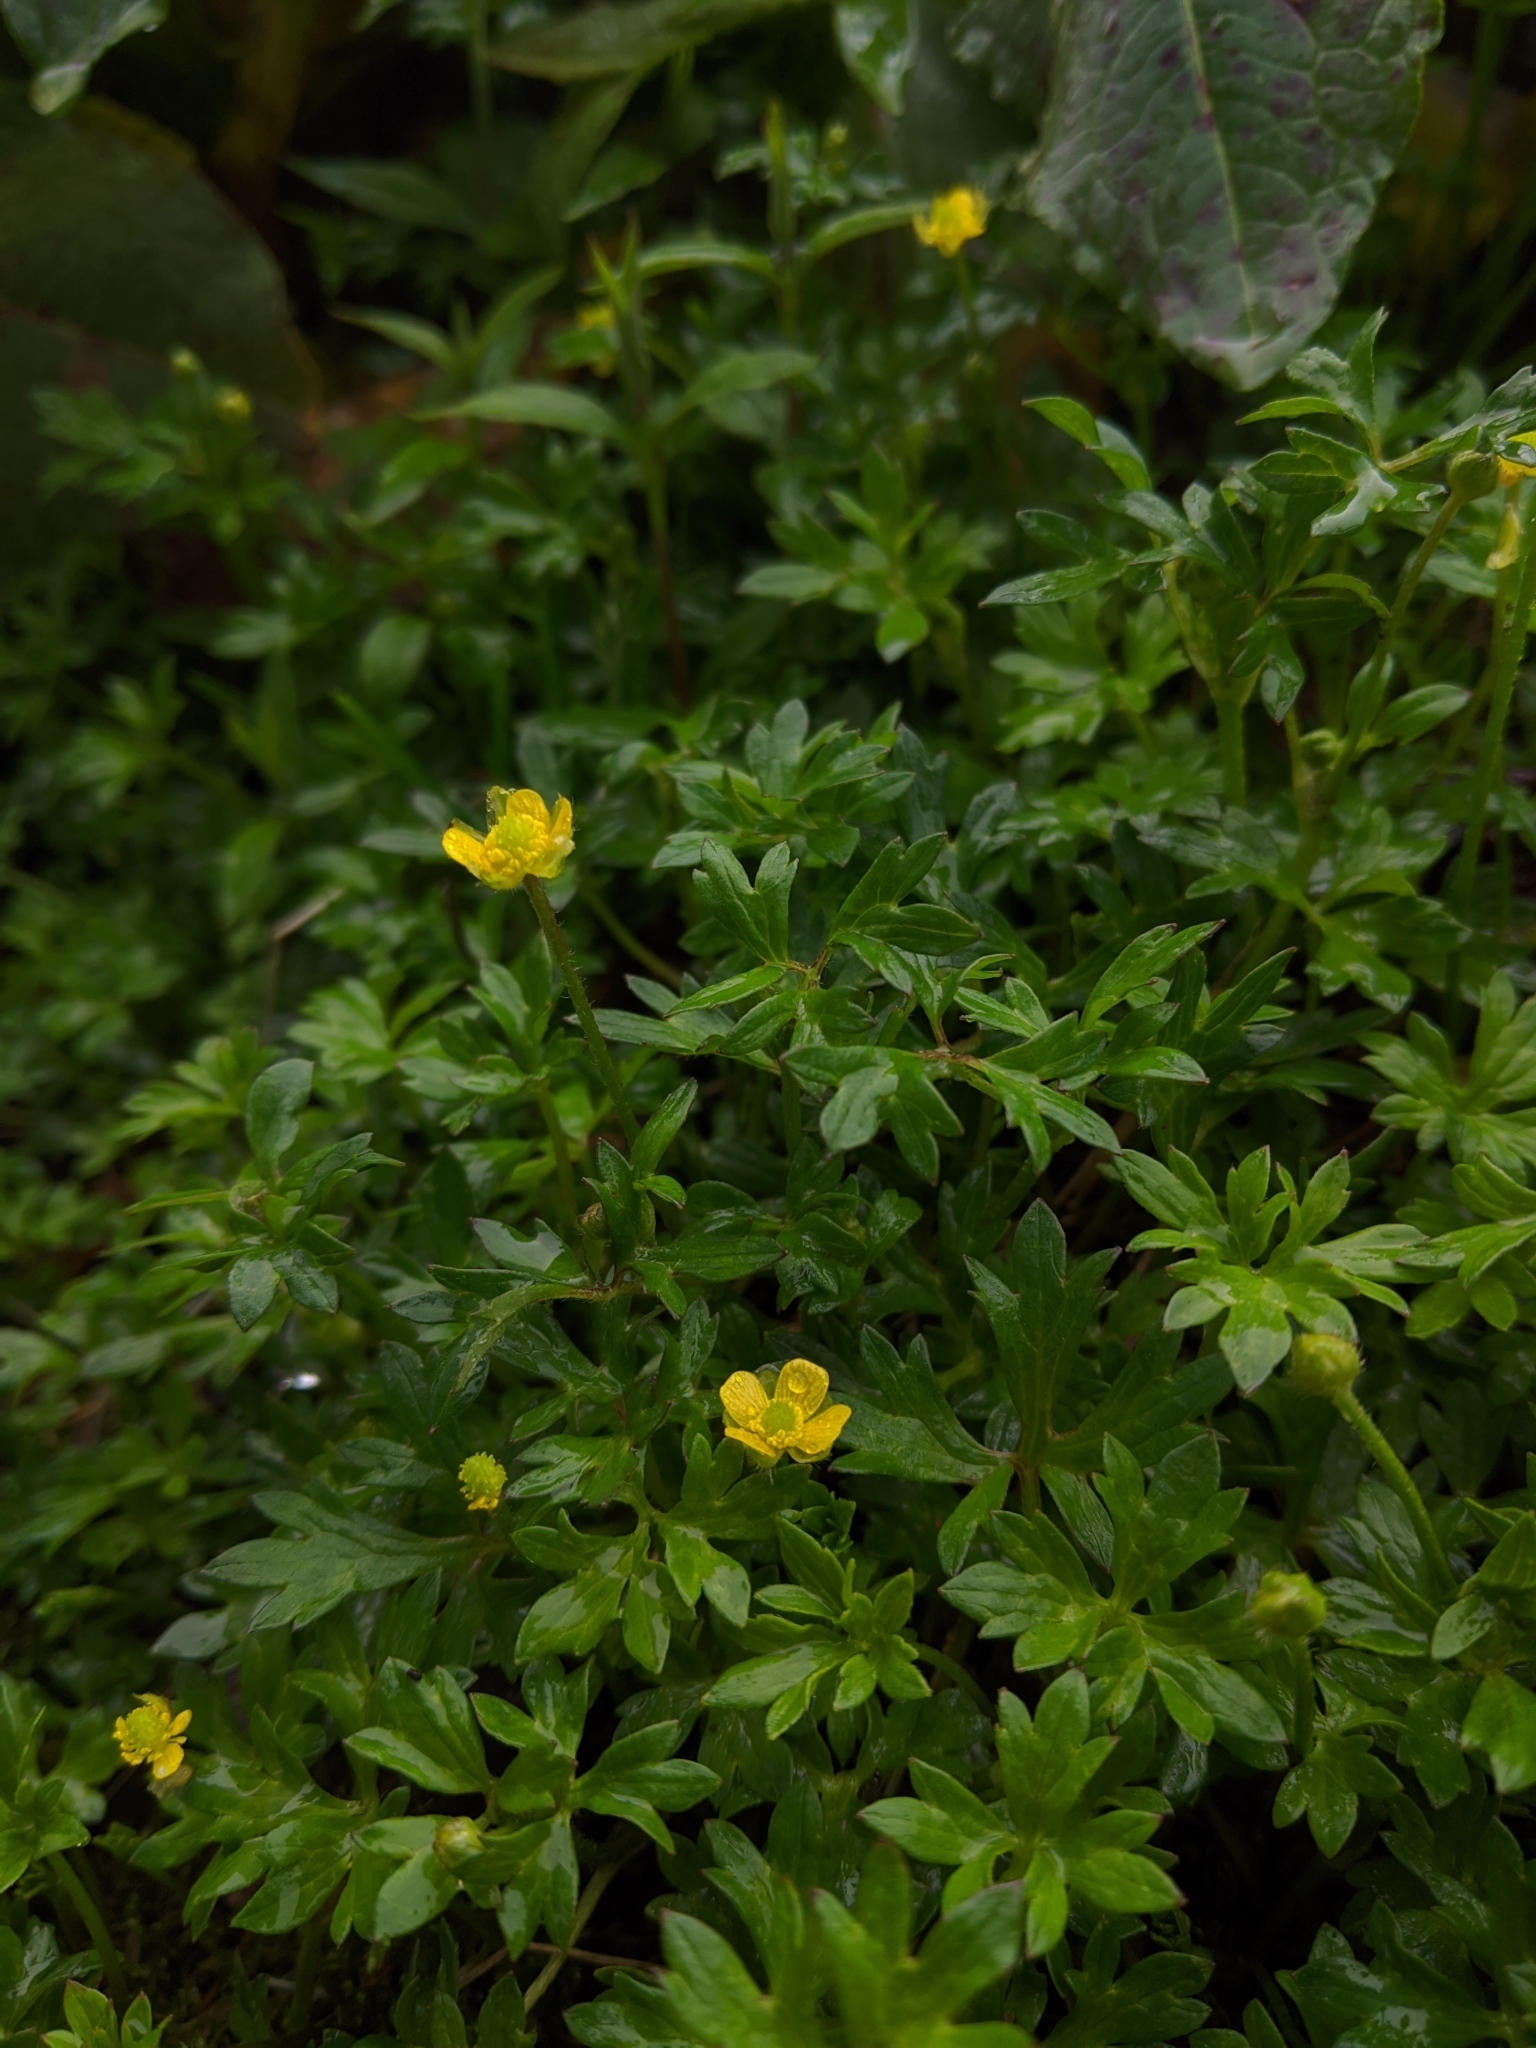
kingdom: Plantae
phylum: Tracheophyta
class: Magnoliopsida
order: Ranunculales
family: Ranunculaceae
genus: Ranunculus
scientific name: Ranunculus taisanensis
